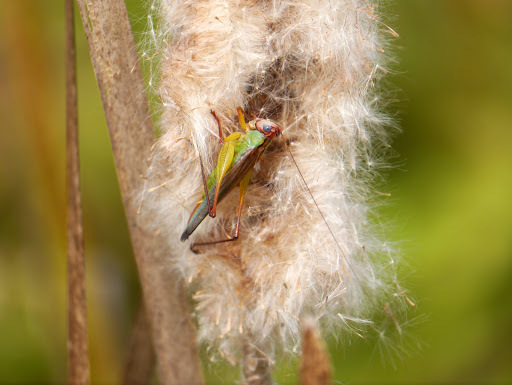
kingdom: Animalia
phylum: Arthropoda
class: Insecta
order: Orthoptera
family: Tettigoniidae
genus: Orchelimum
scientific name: Orchelimum pulchellum
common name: Handsome meadow katydid
